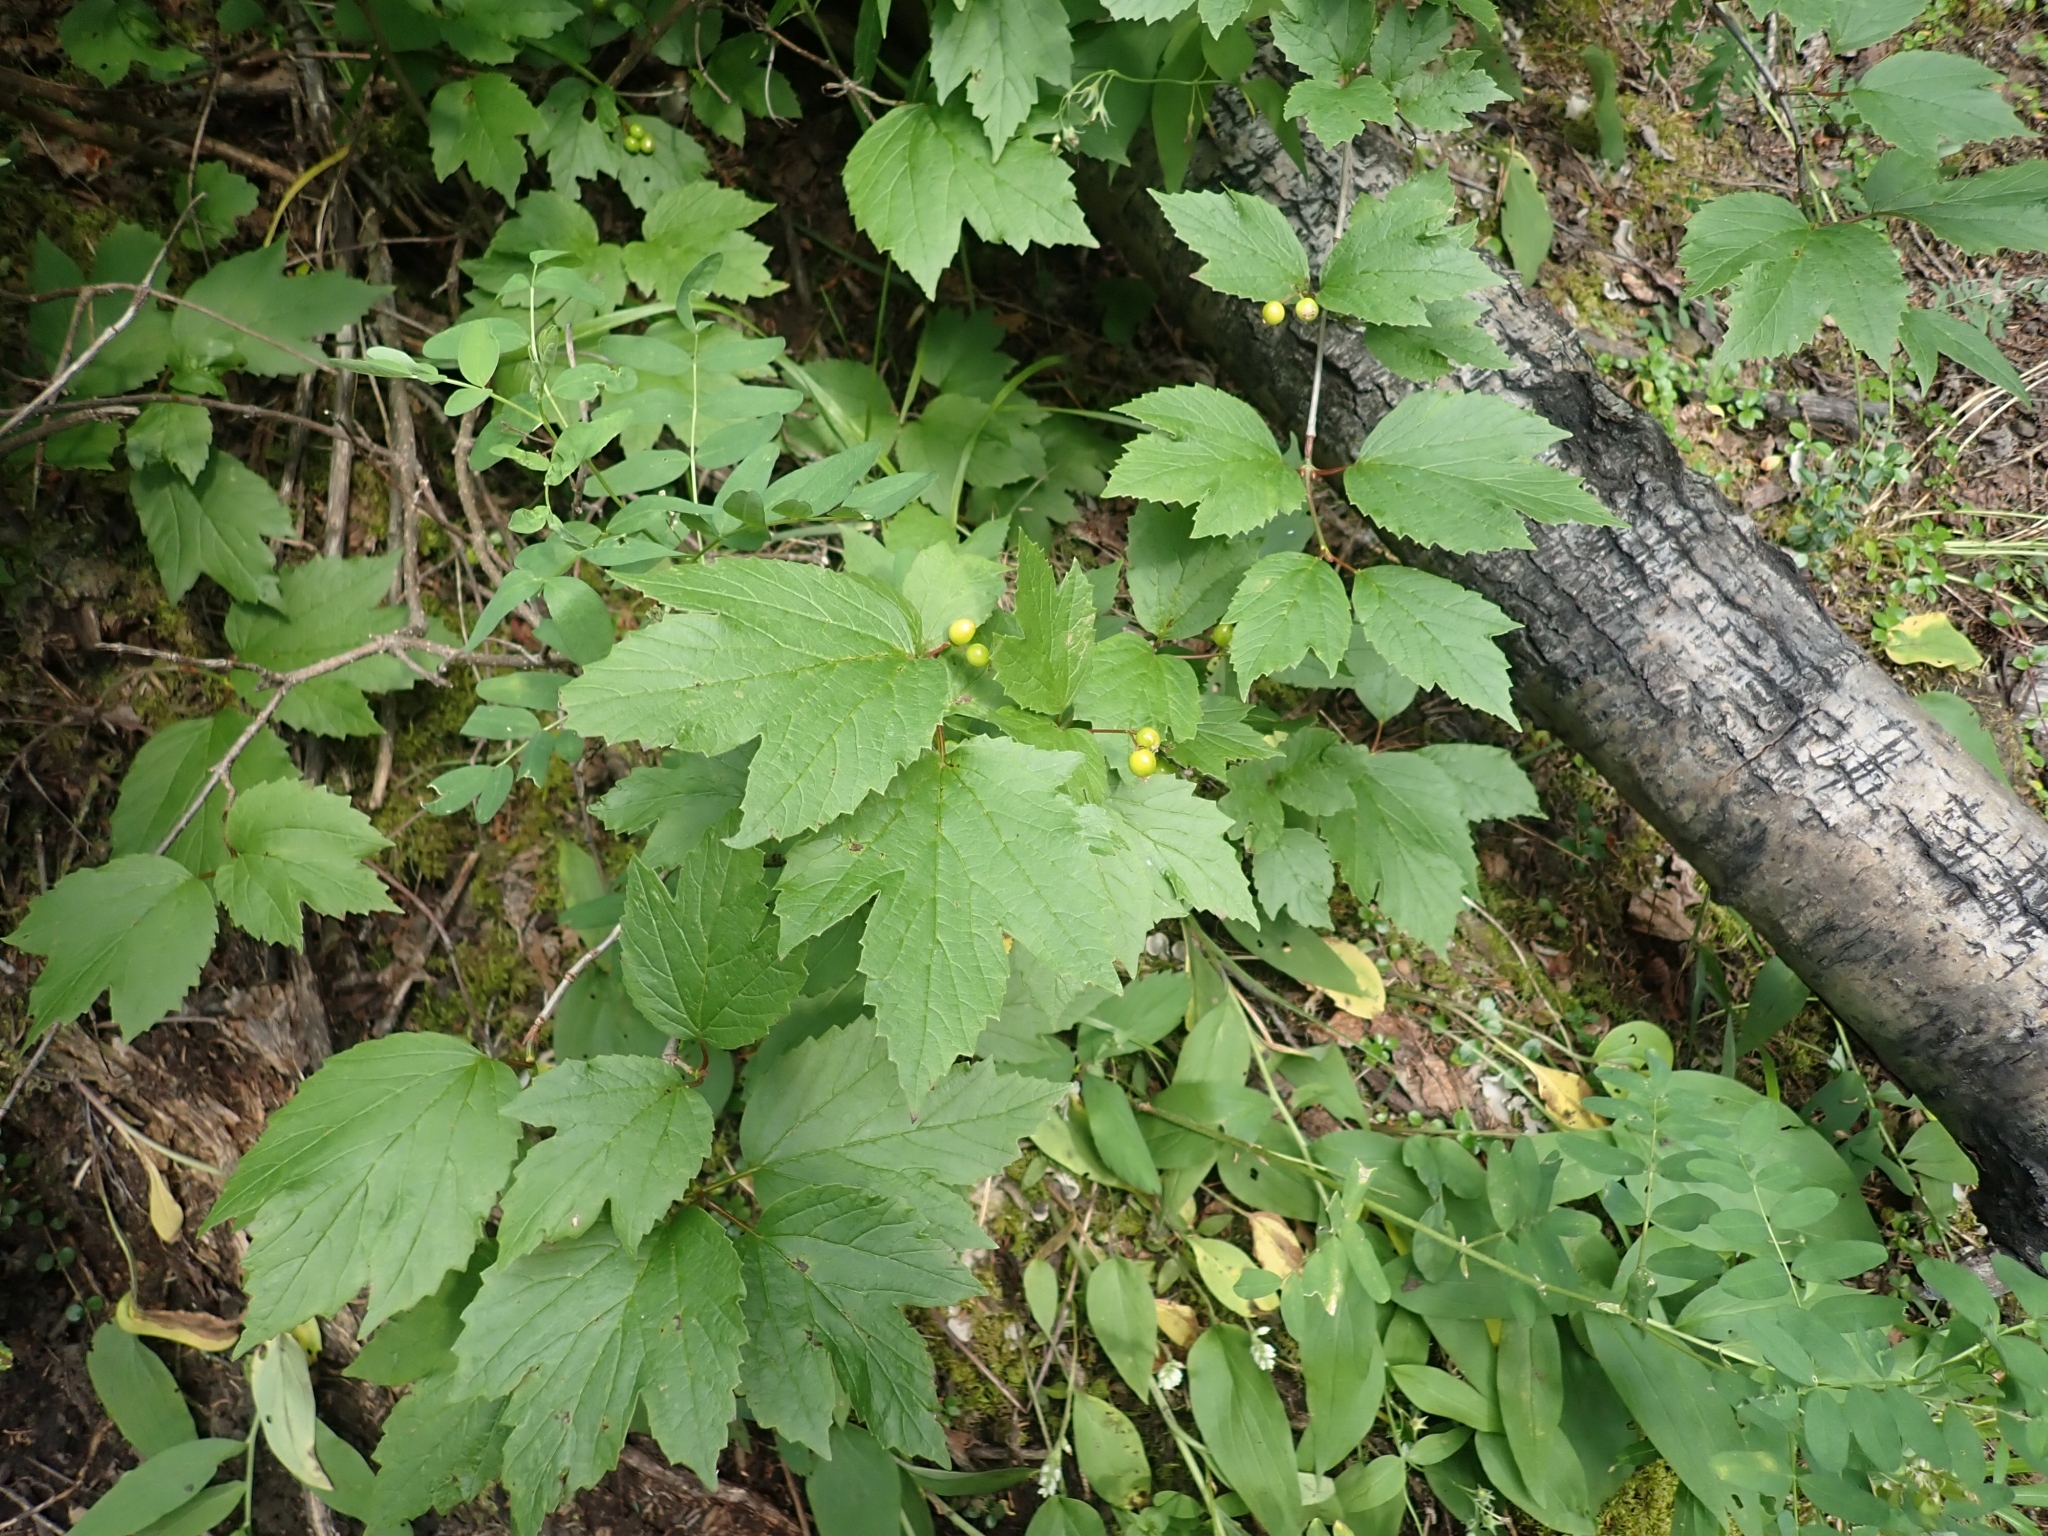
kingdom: Plantae
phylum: Tracheophyta
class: Magnoliopsida
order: Dipsacales
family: Viburnaceae
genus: Viburnum
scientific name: Viburnum edule
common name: Mooseberry
